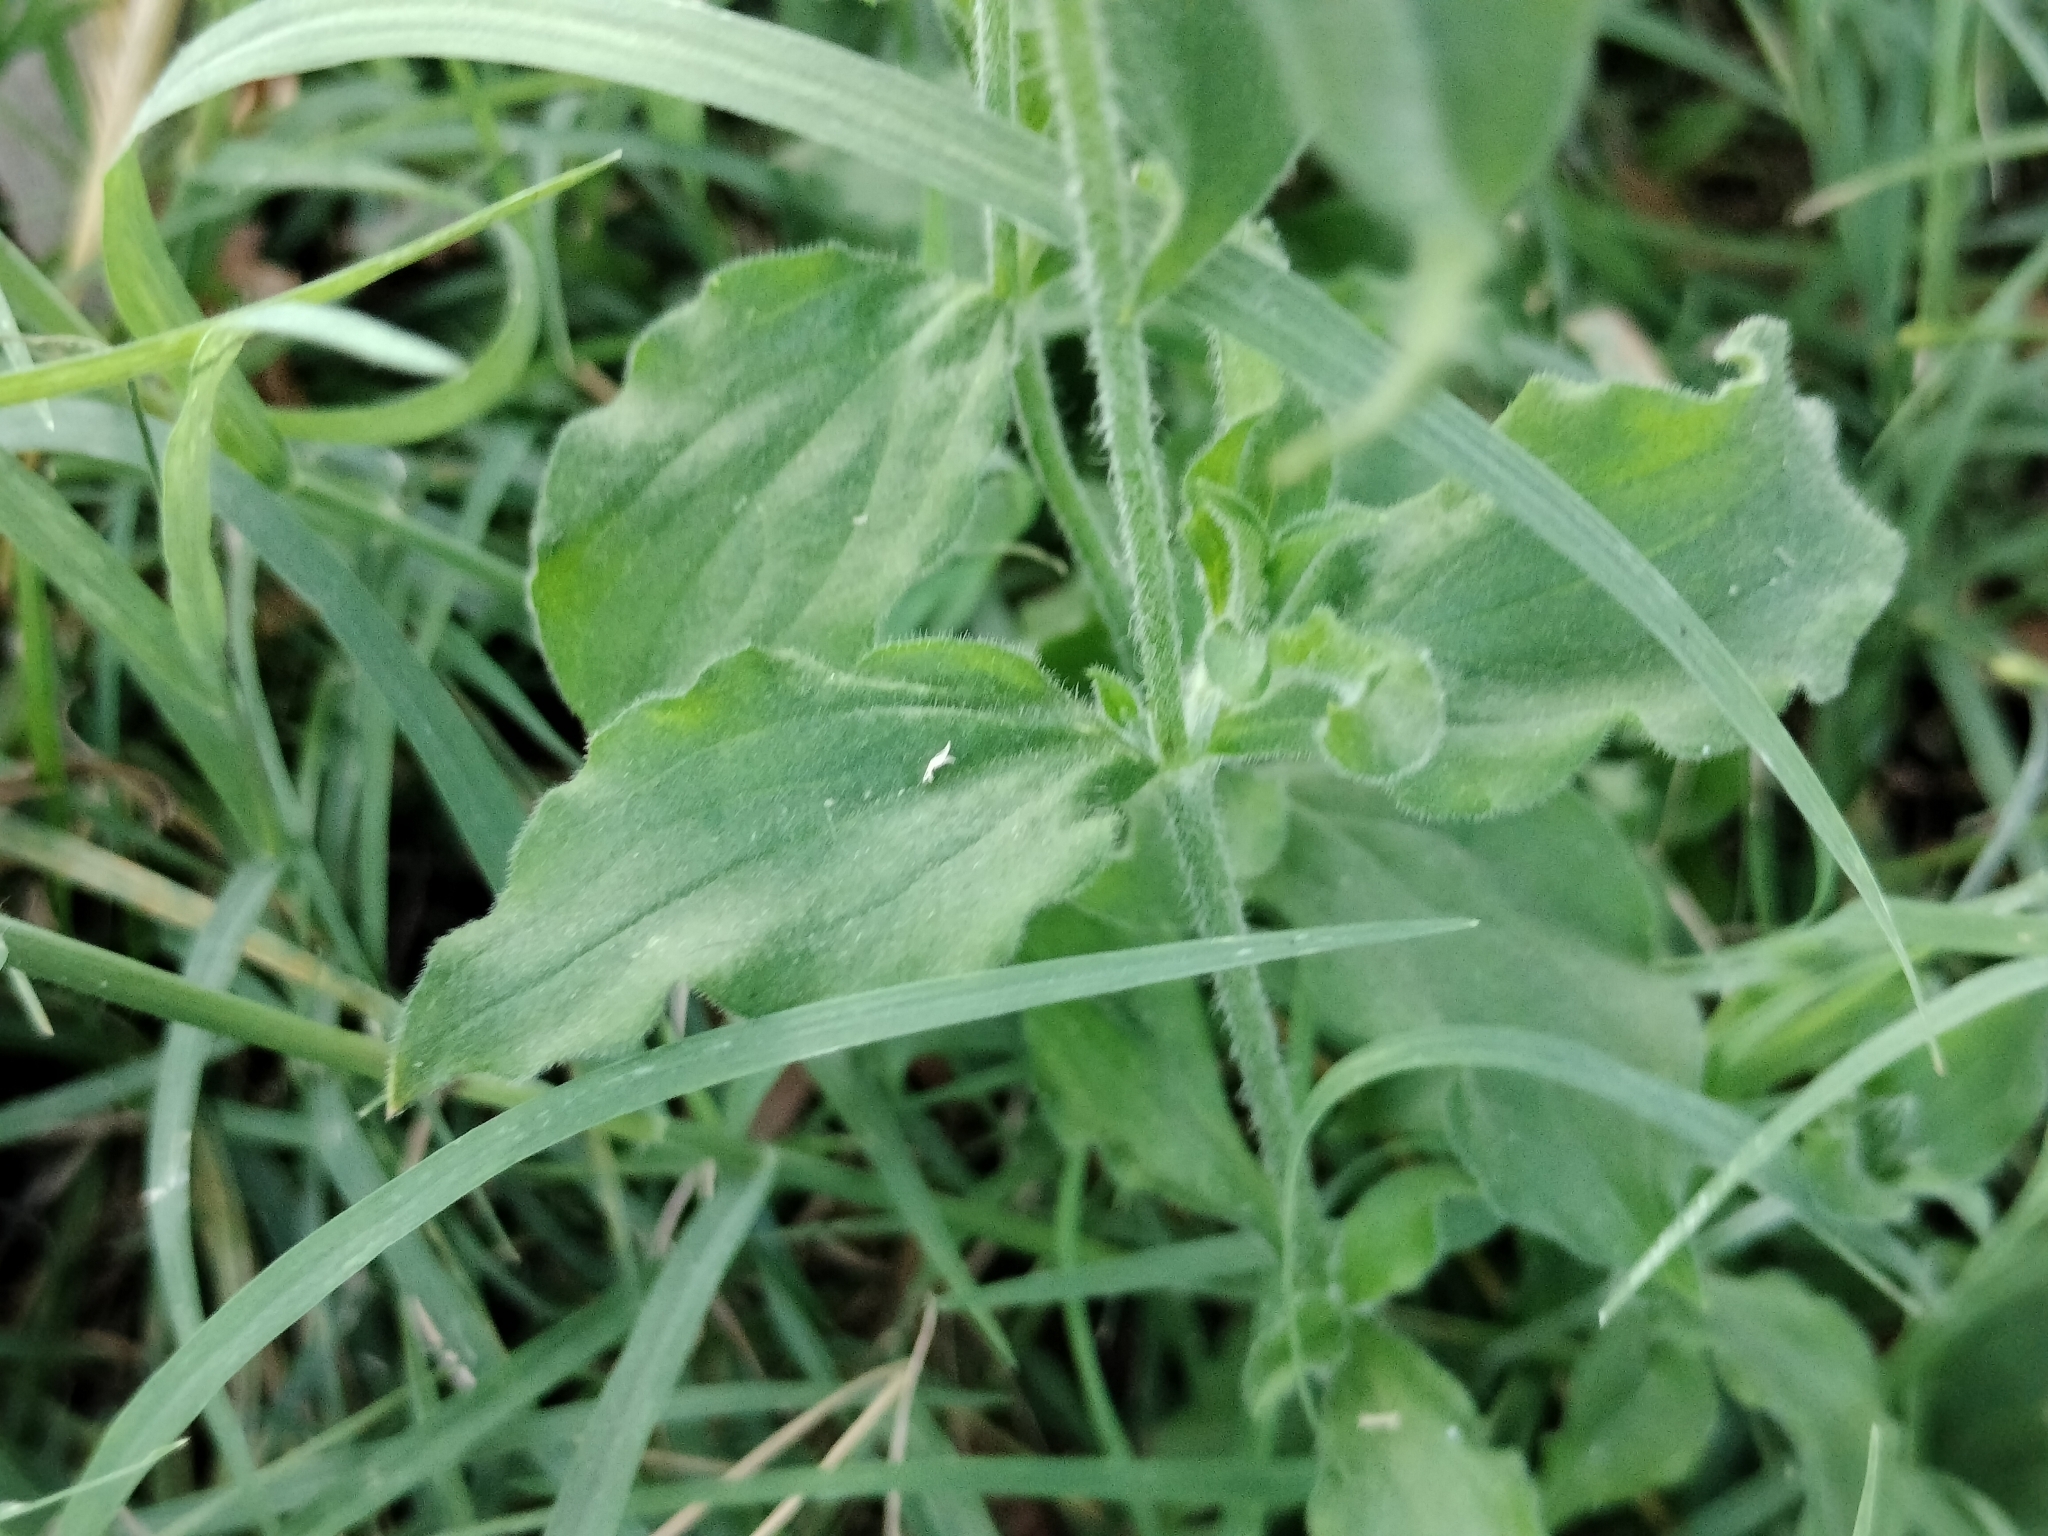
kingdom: Plantae
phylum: Tracheophyta
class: Magnoliopsida
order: Caryophyllales
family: Caryophyllaceae
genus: Silene
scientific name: Silene latifolia
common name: White campion
